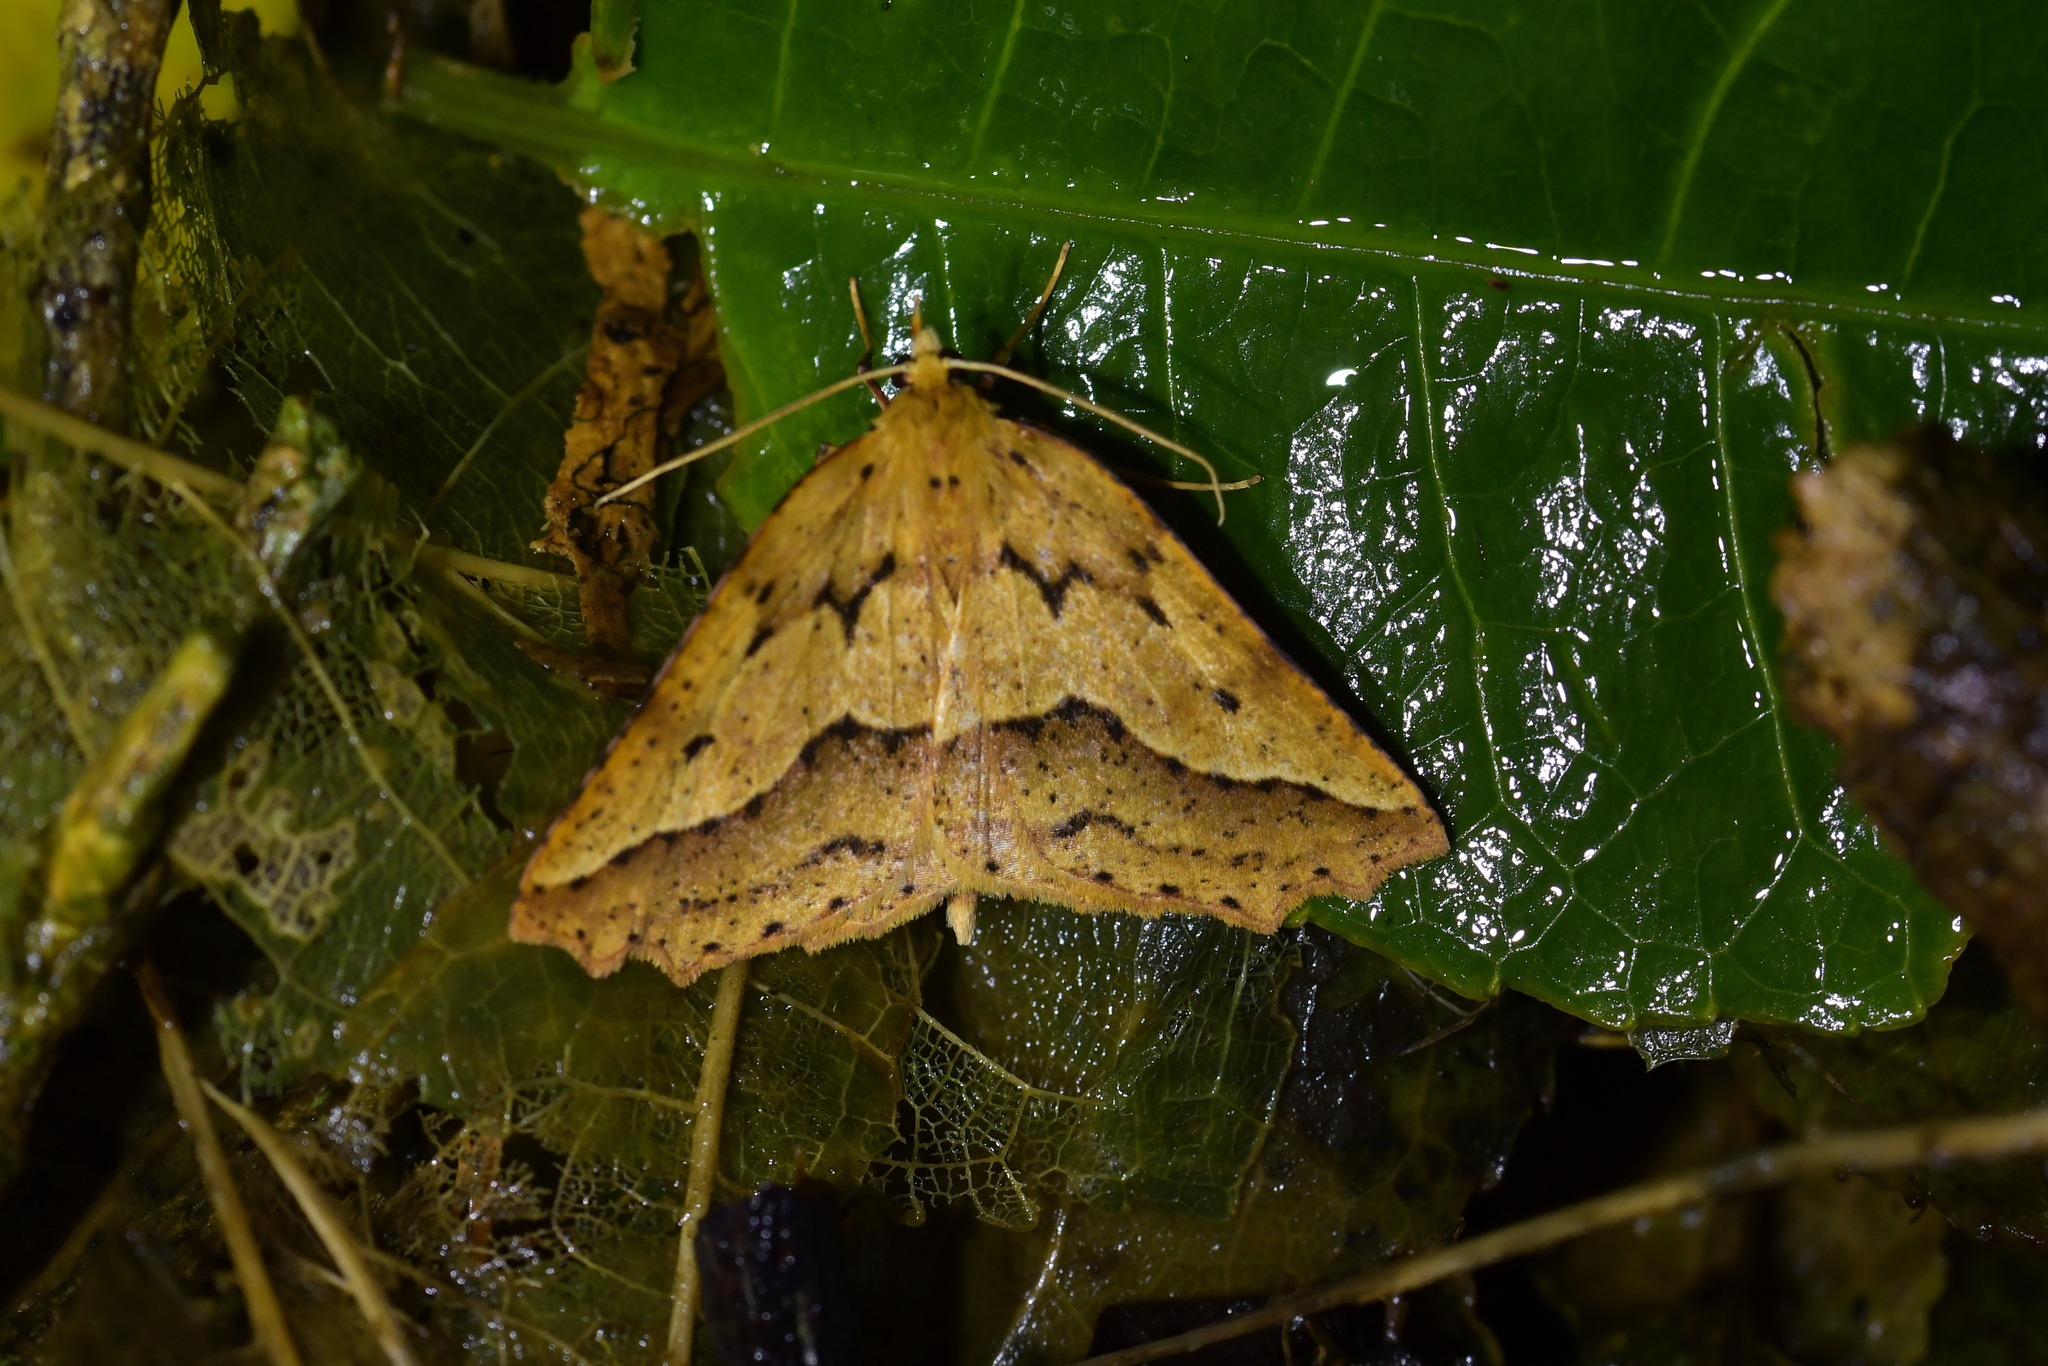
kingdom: Animalia
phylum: Arthropoda
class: Insecta
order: Lepidoptera
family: Geometridae
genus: Ischalis
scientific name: Ischalis variabilis
